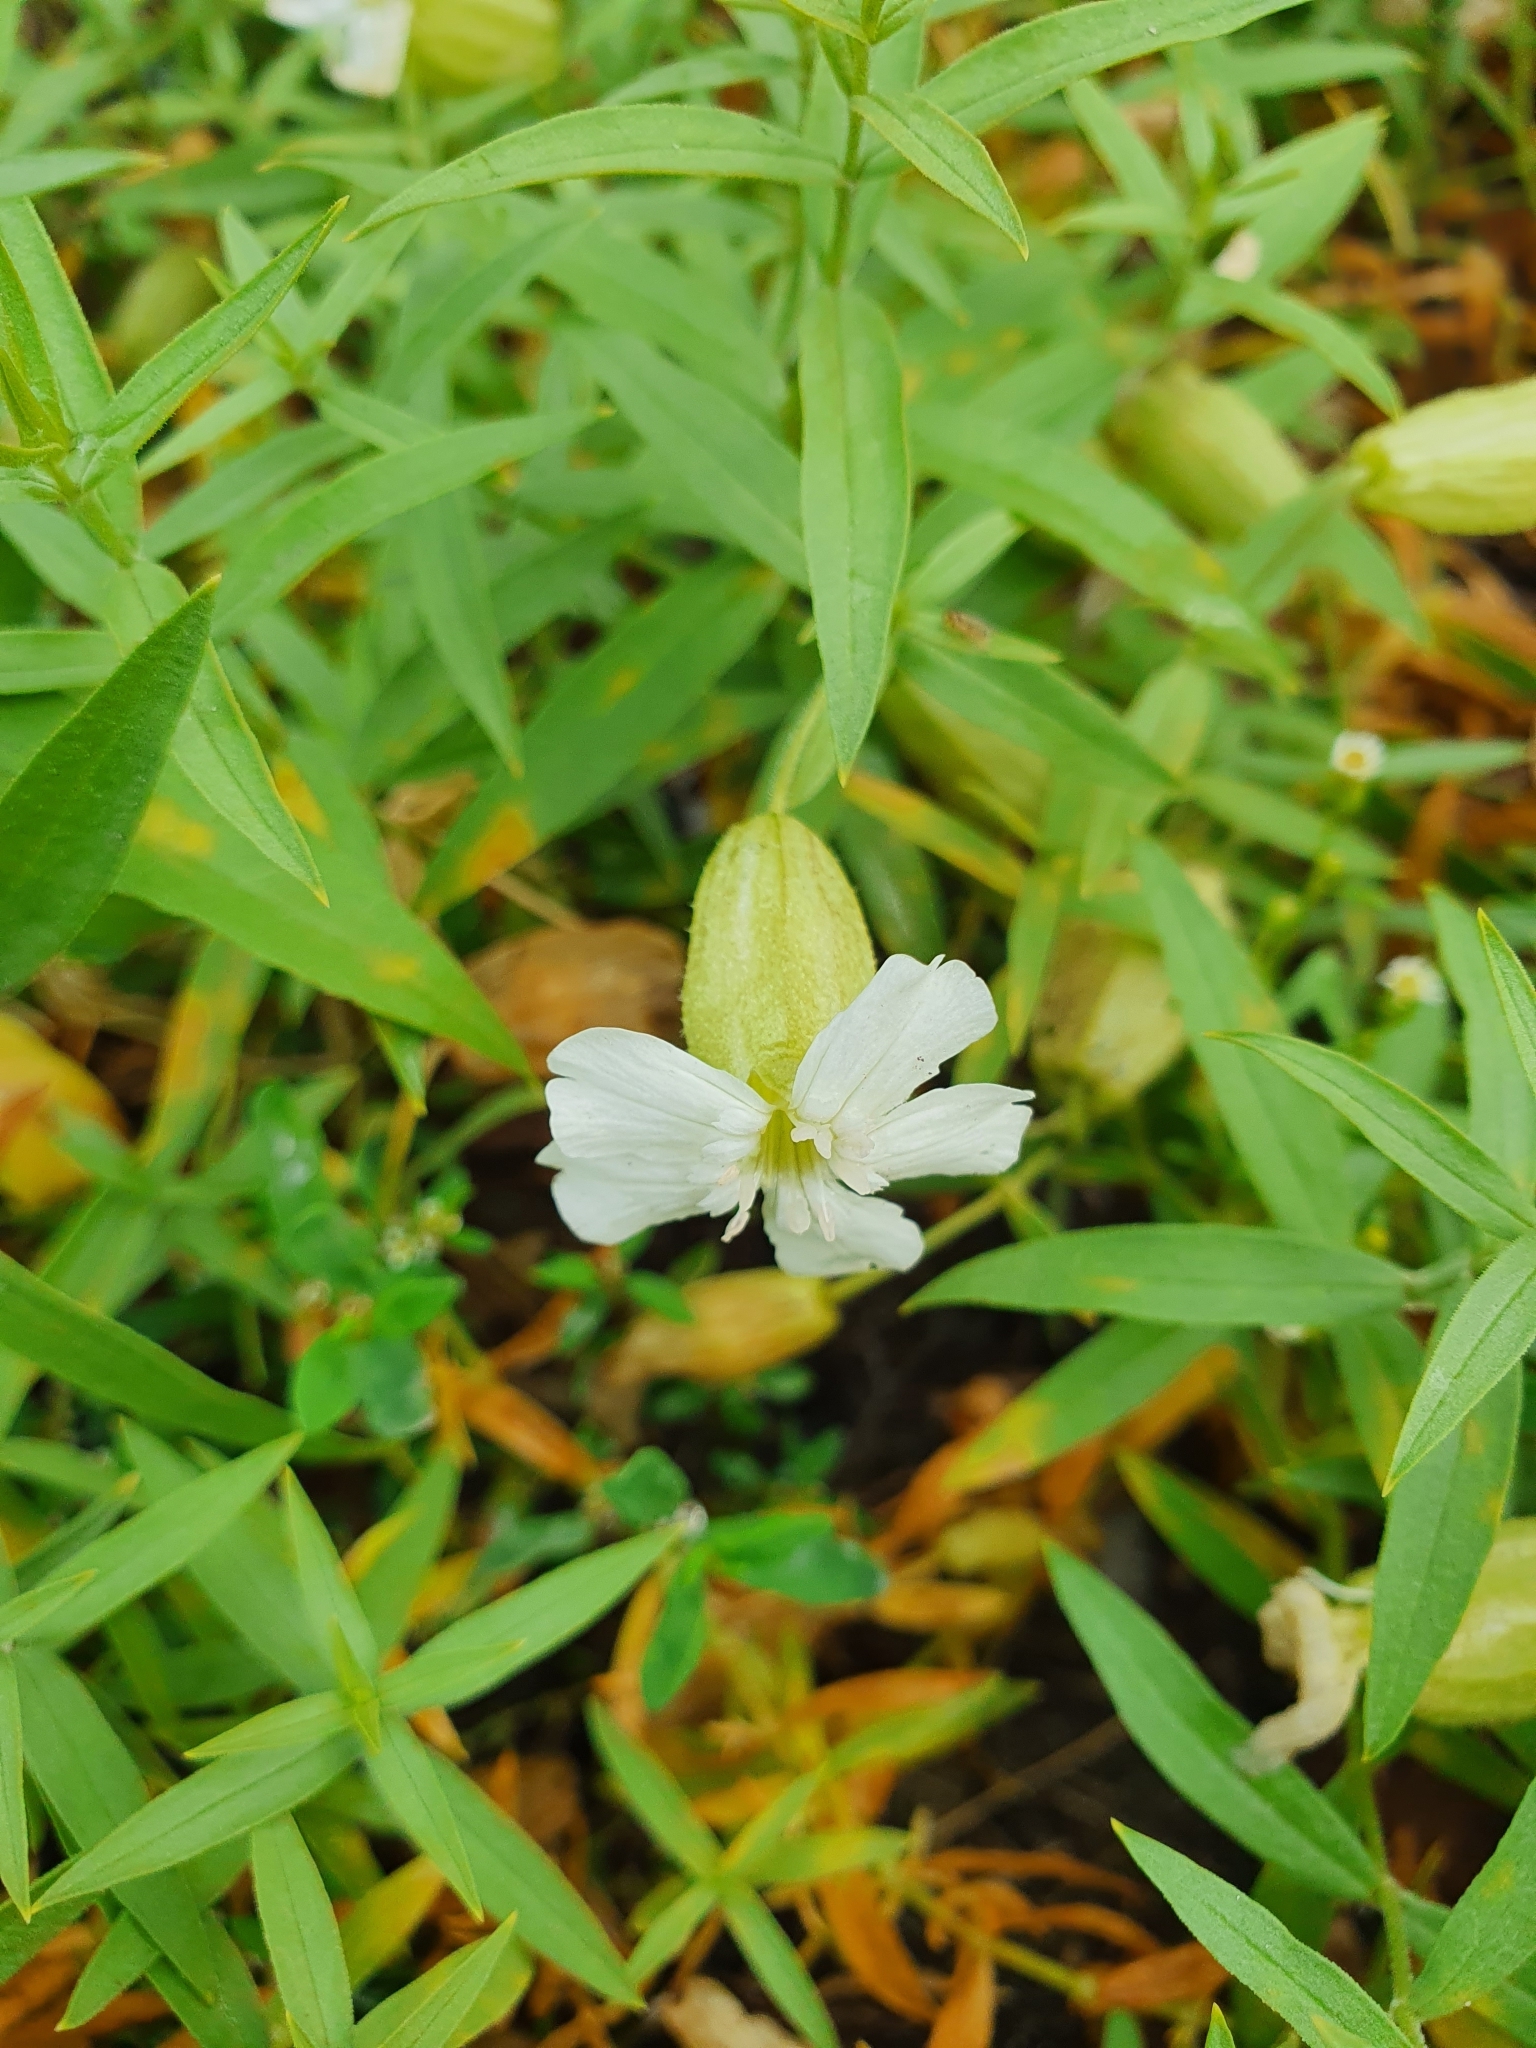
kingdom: Plantae
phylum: Tracheophyta
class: Magnoliopsida
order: Caryophyllales
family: Caryophyllaceae
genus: Silene
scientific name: Silene procumbens
